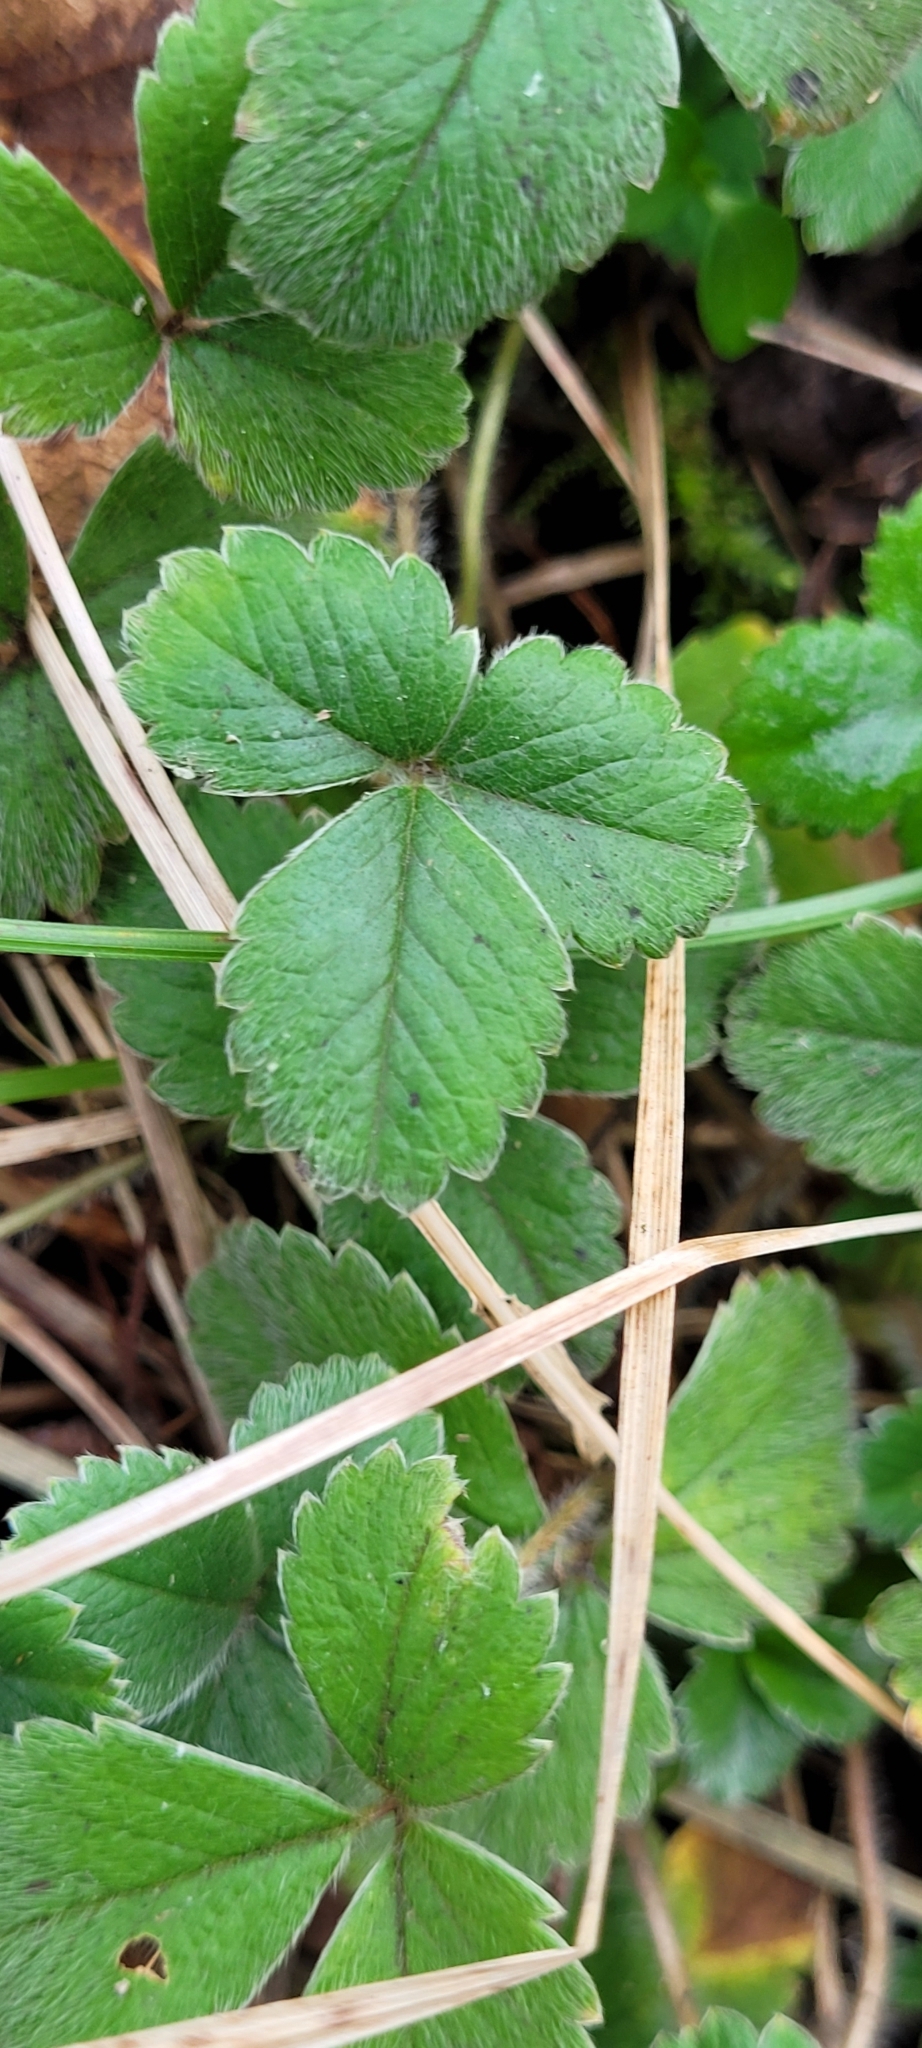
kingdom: Plantae
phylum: Tracheophyta
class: Magnoliopsida
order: Rosales
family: Rosaceae
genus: Potentilla
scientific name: Potentilla sterilis
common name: Barren strawberry
